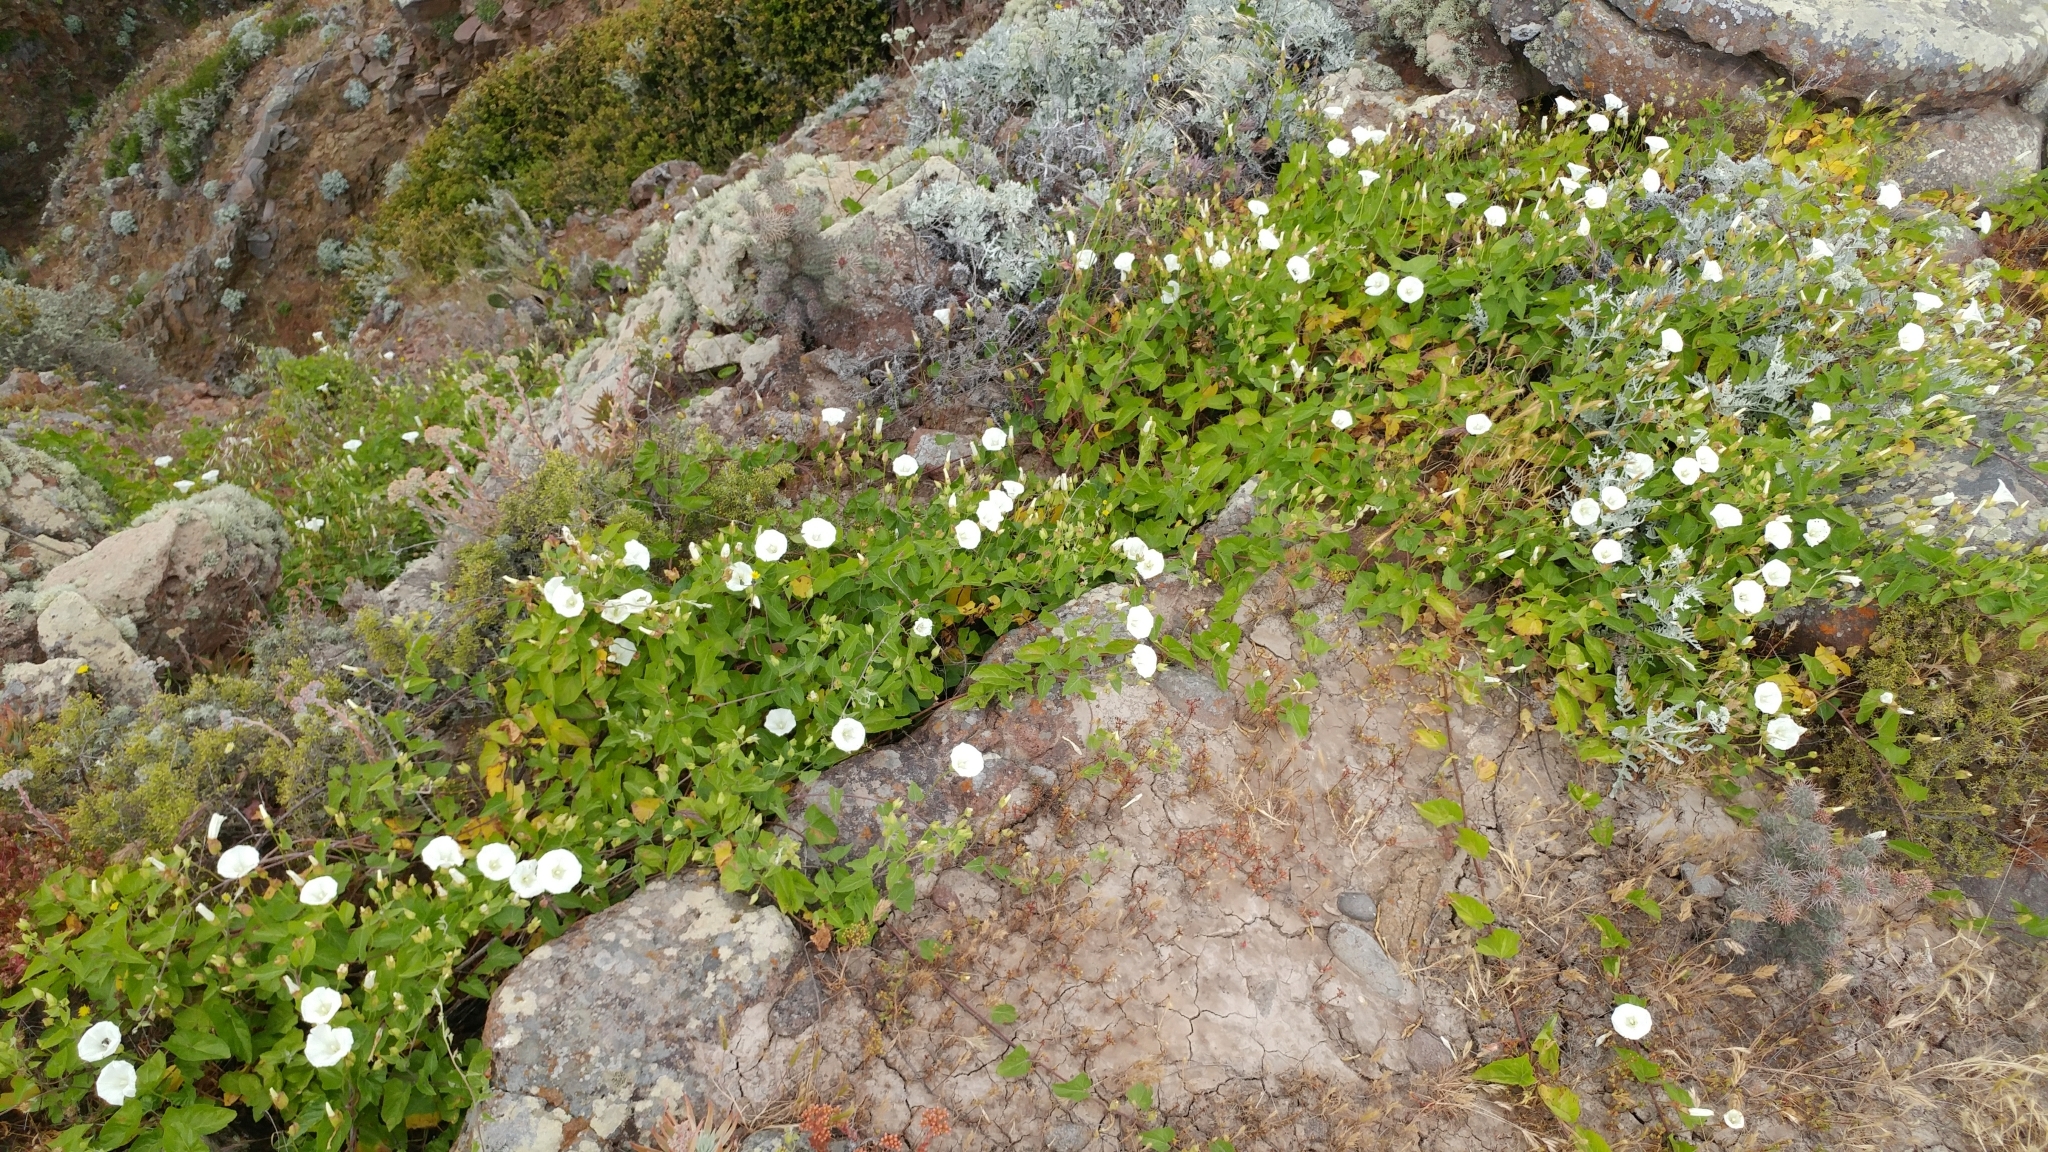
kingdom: Plantae
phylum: Tracheophyta
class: Magnoliopsida
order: Solanales
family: Convolvulaceae
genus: Calystegia
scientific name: Calystegia macrostegia
